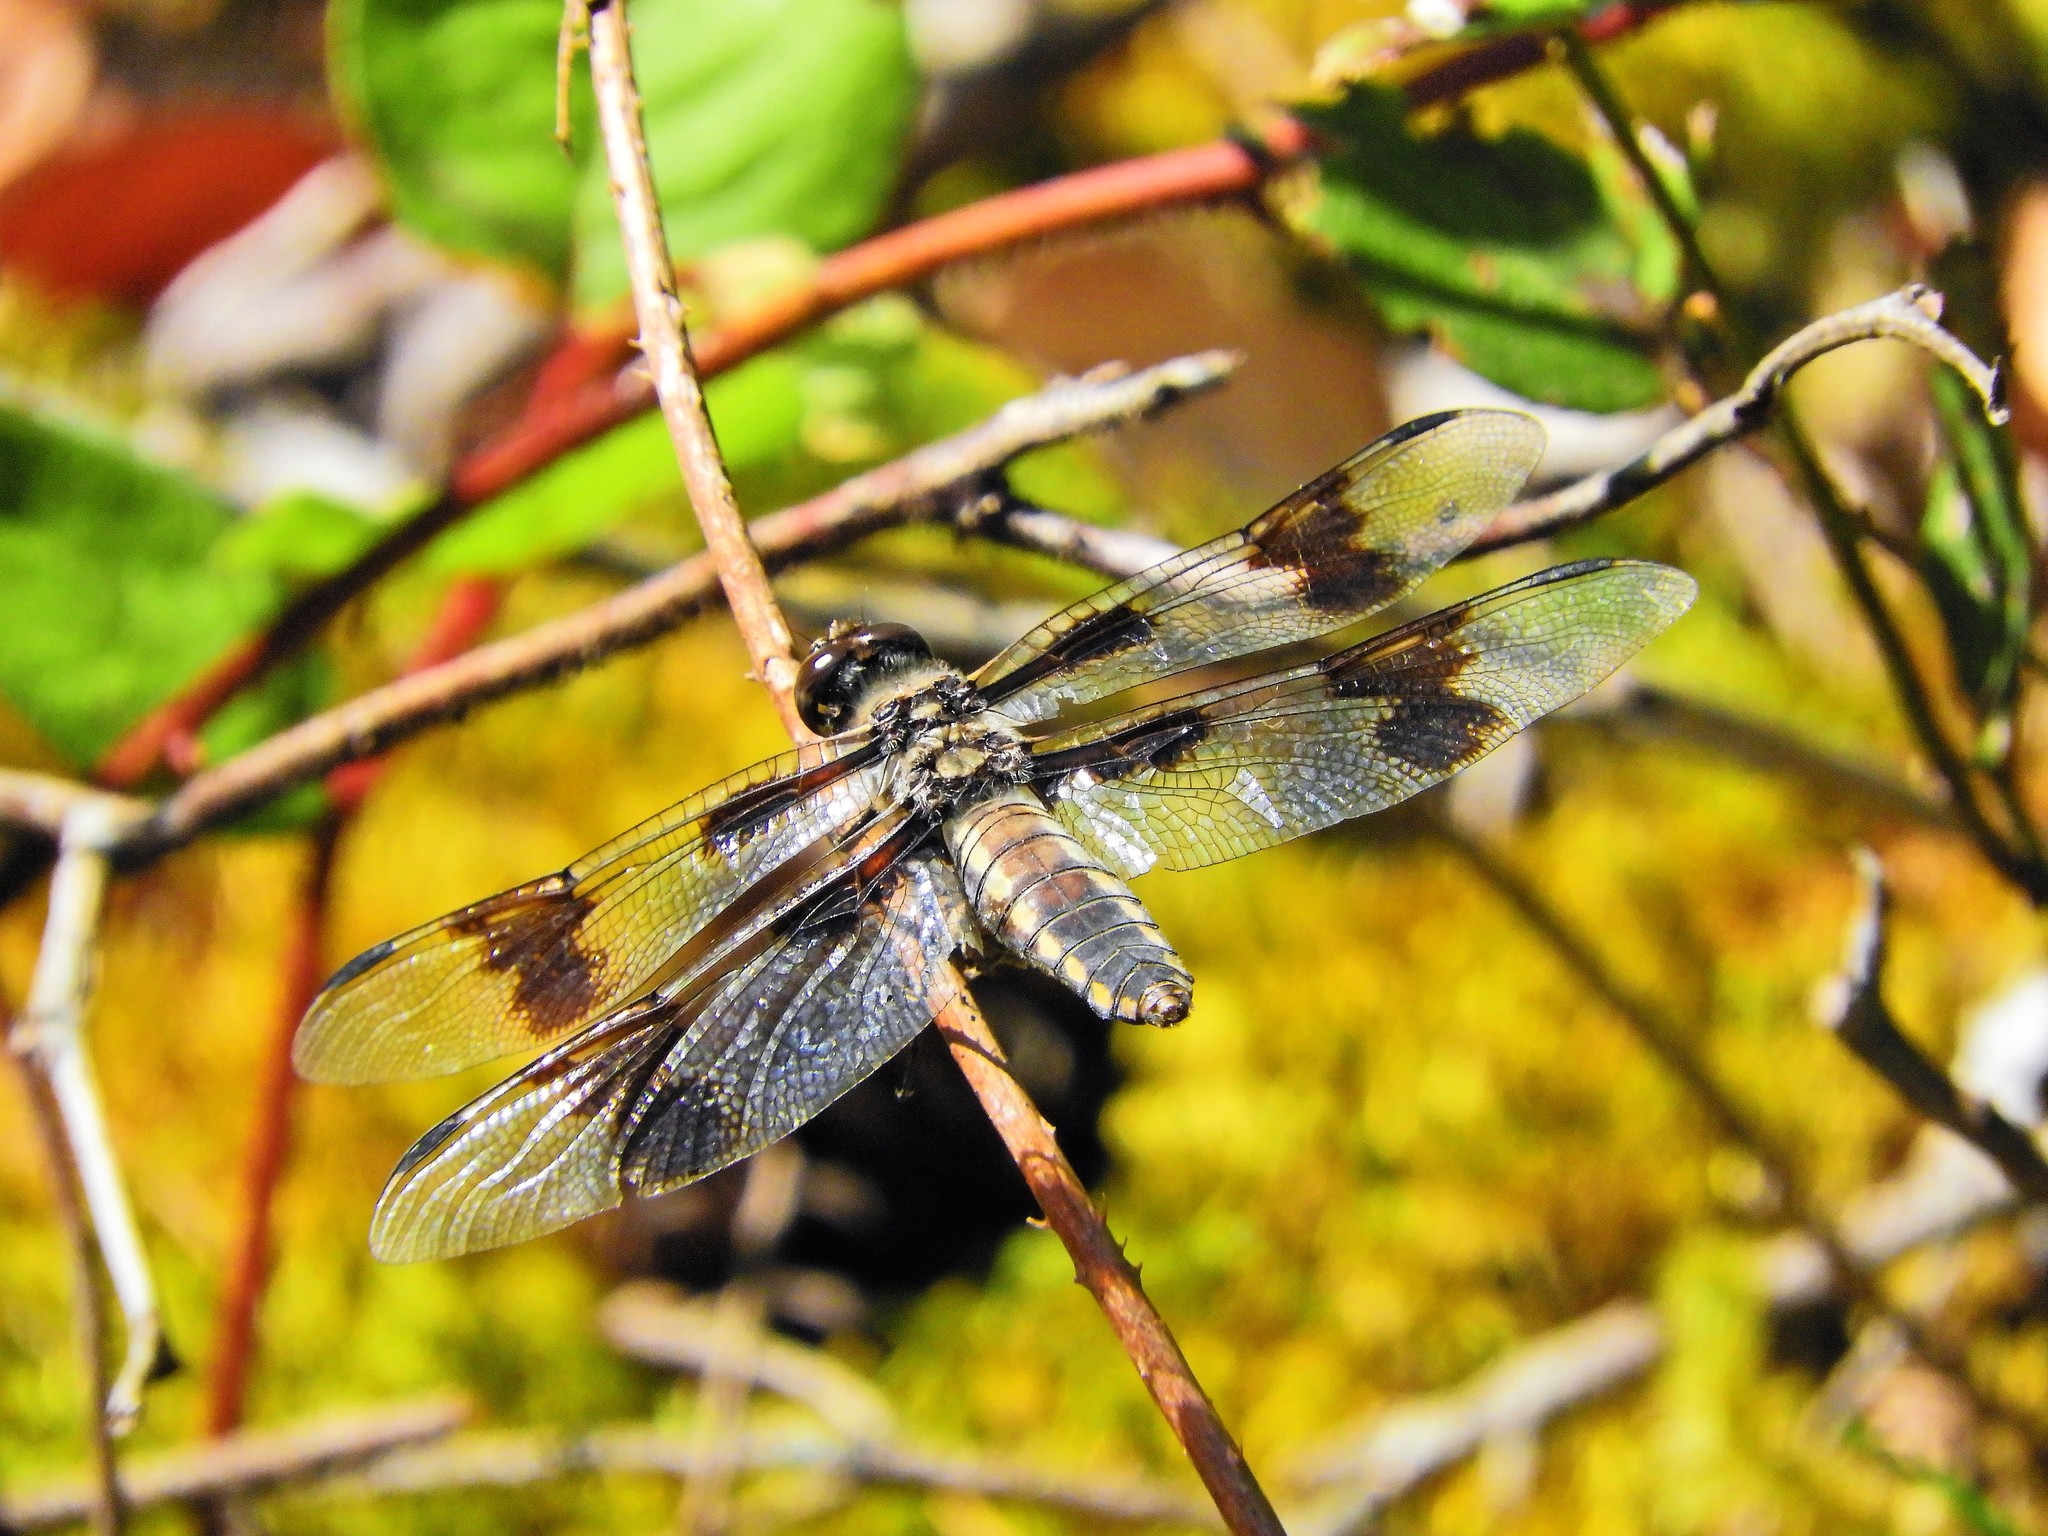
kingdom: Animalia
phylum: Arthropoda
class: Insecta
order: Odonata
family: Libellulidae
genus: Libellula
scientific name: Libellula forensis
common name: Eight-spotted skimmer
